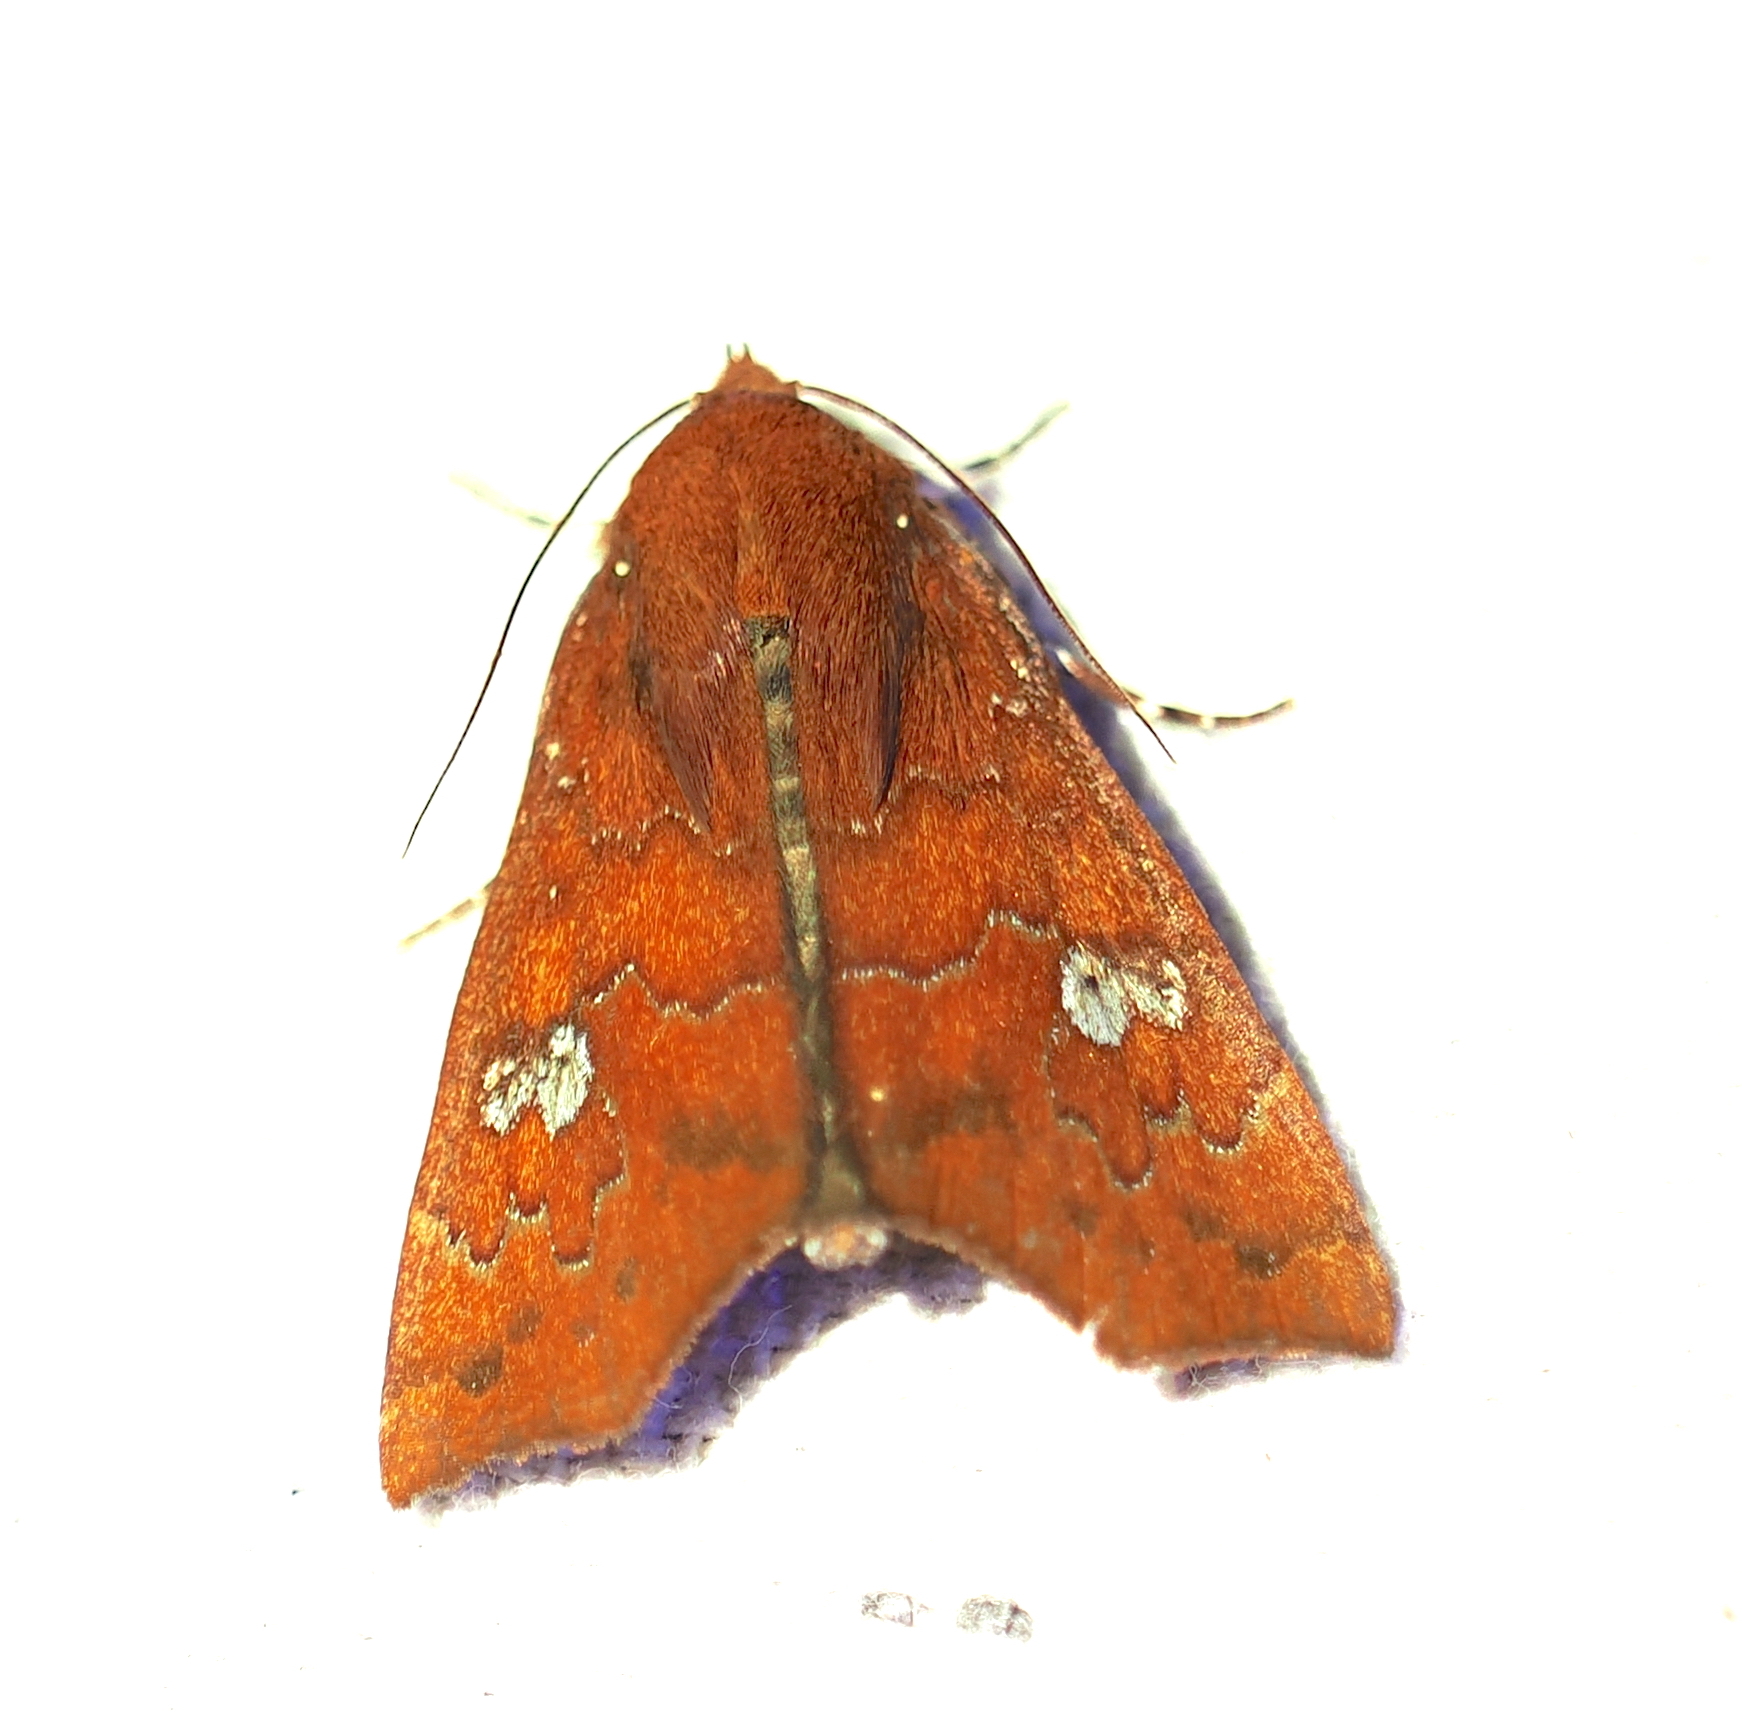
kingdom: Animalia
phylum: Arthropoda
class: Insecta
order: Lepidoptera
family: Erebidae
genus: Anomis
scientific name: Anomis rubida
